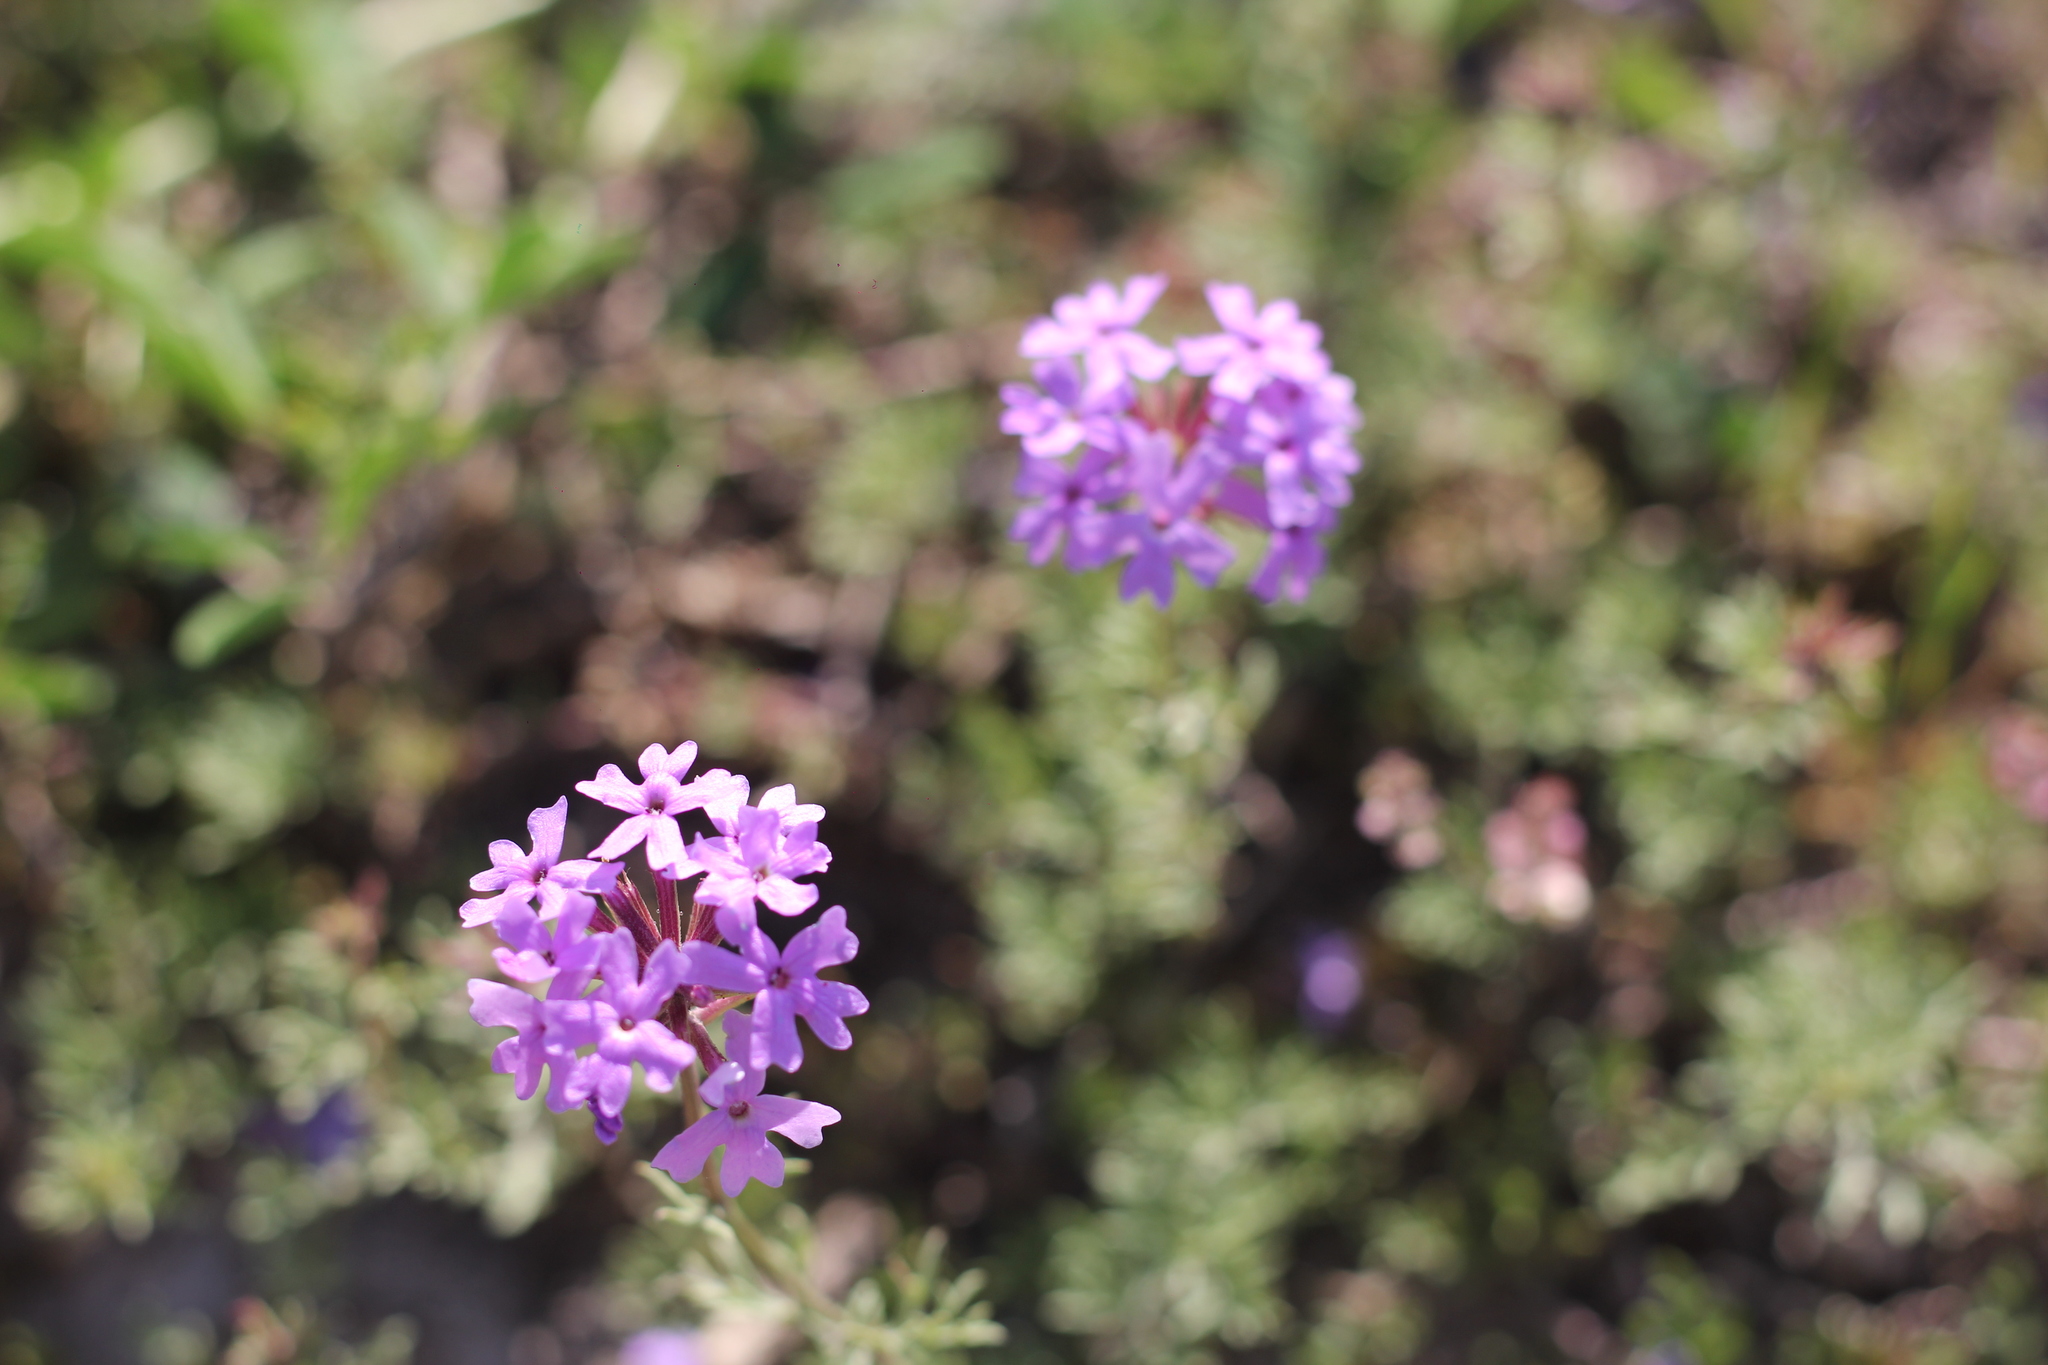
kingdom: Plantae
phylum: Tracheophyta
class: Magnoliopsida
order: Lamiales
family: Verbenaceae
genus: Verbena
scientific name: Verbena tenera
